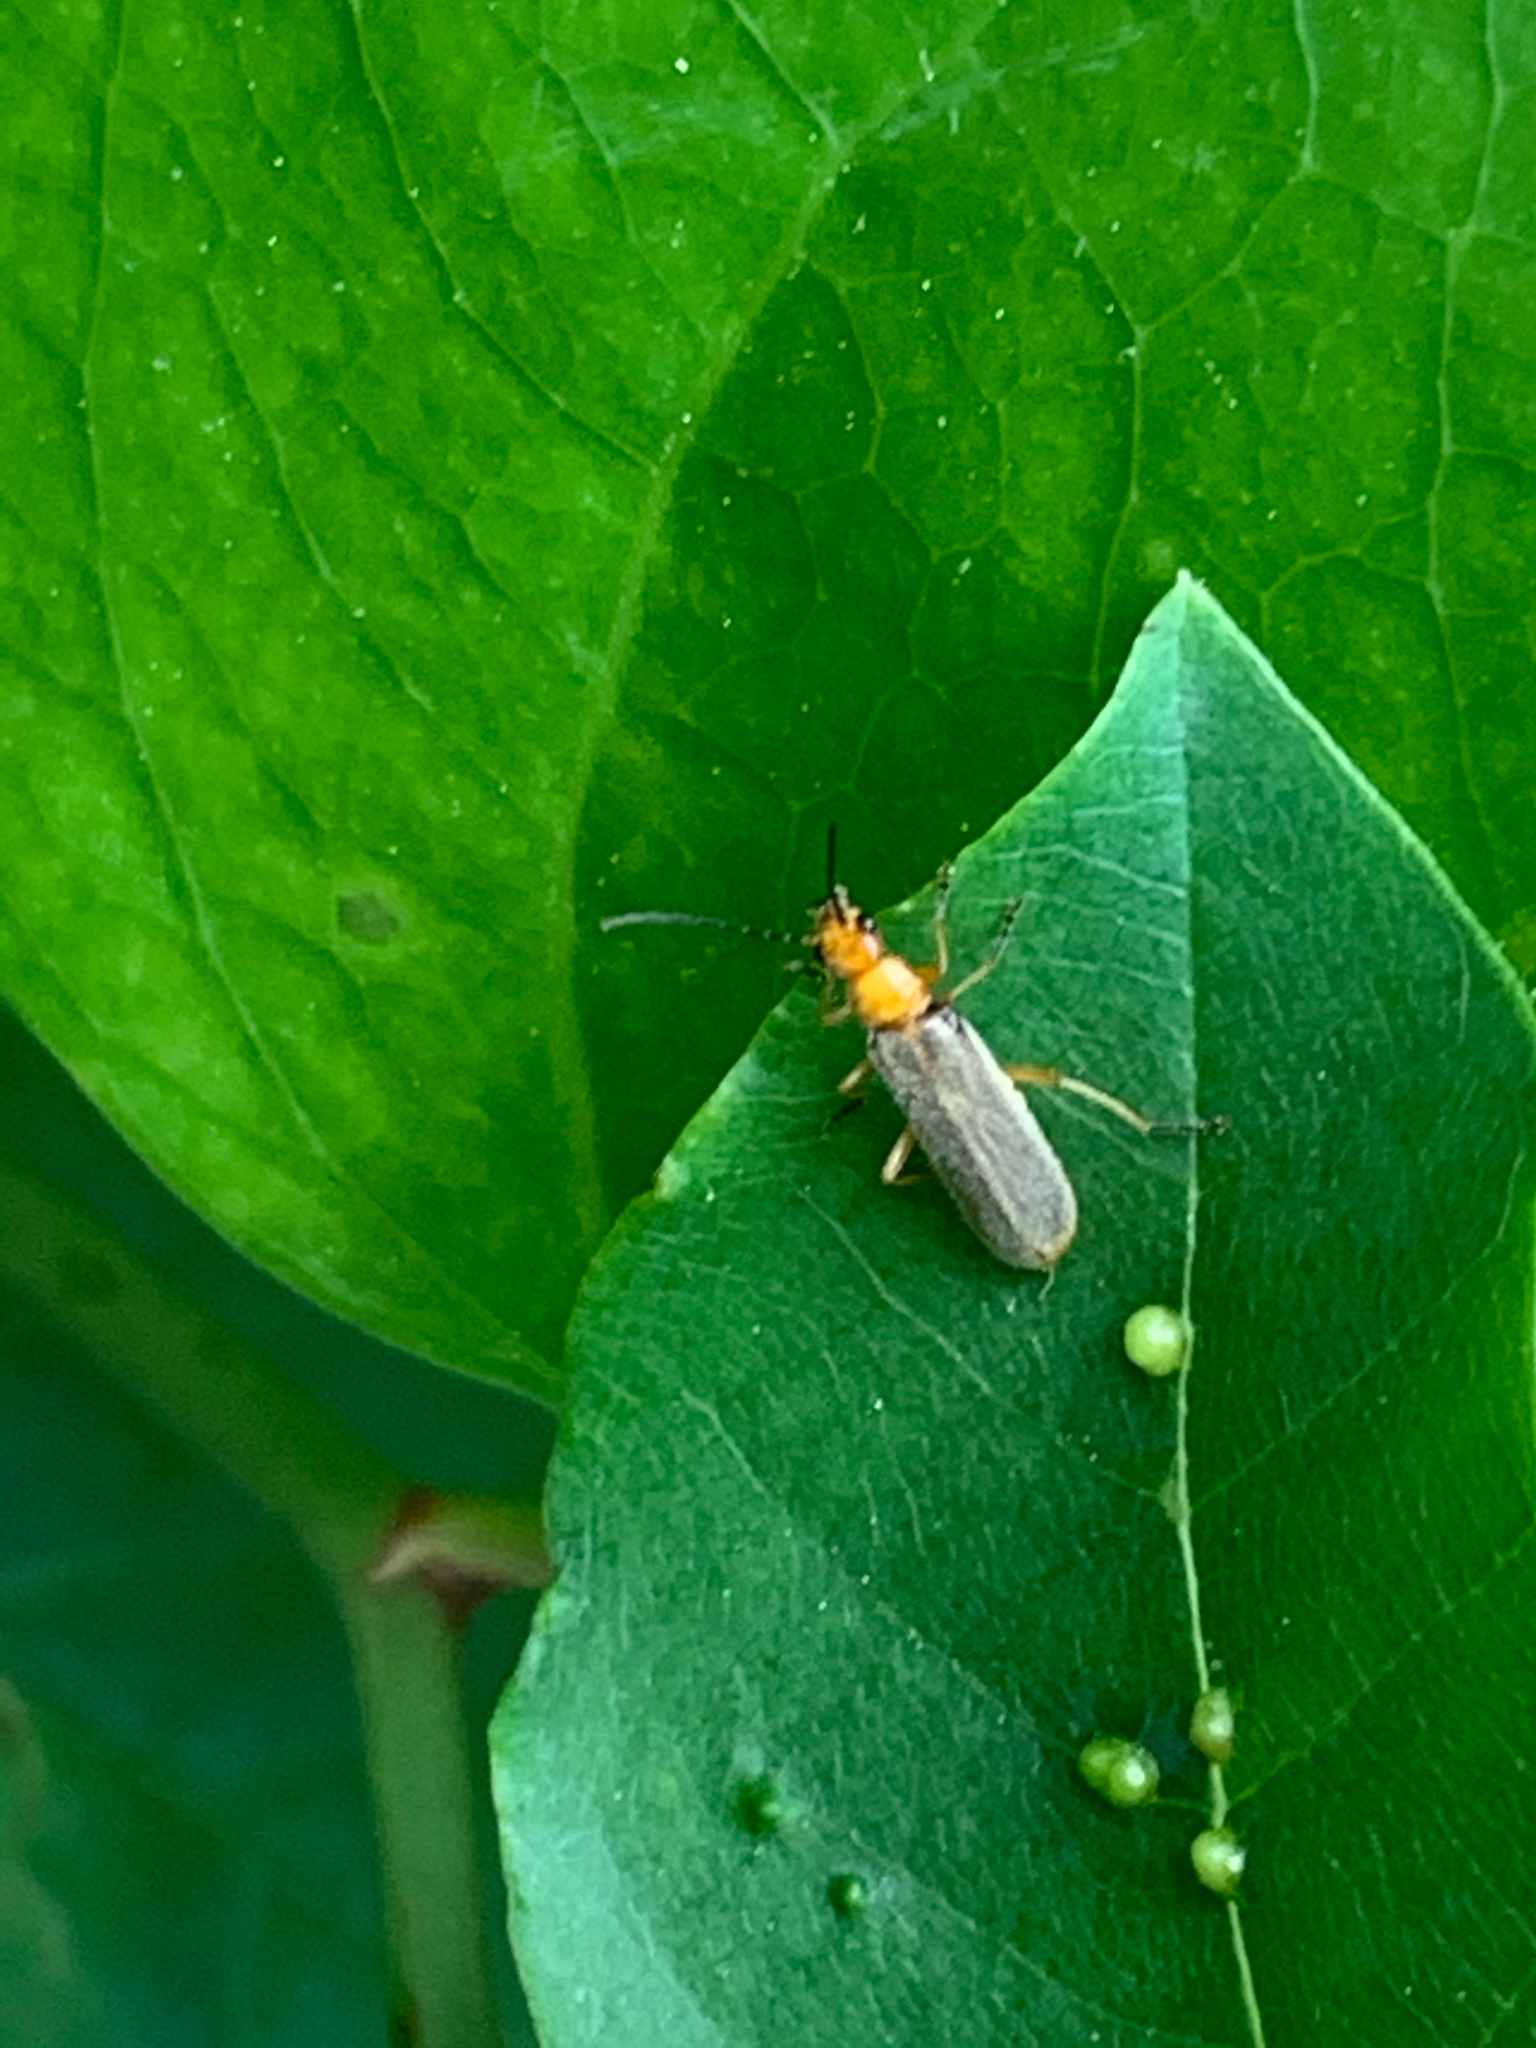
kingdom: Animalia
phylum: Arthropoda
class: Insecta
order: Coleoptera
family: Cantharidae
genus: Rhagonycha
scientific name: Rhagonycha nigrohumeralis
